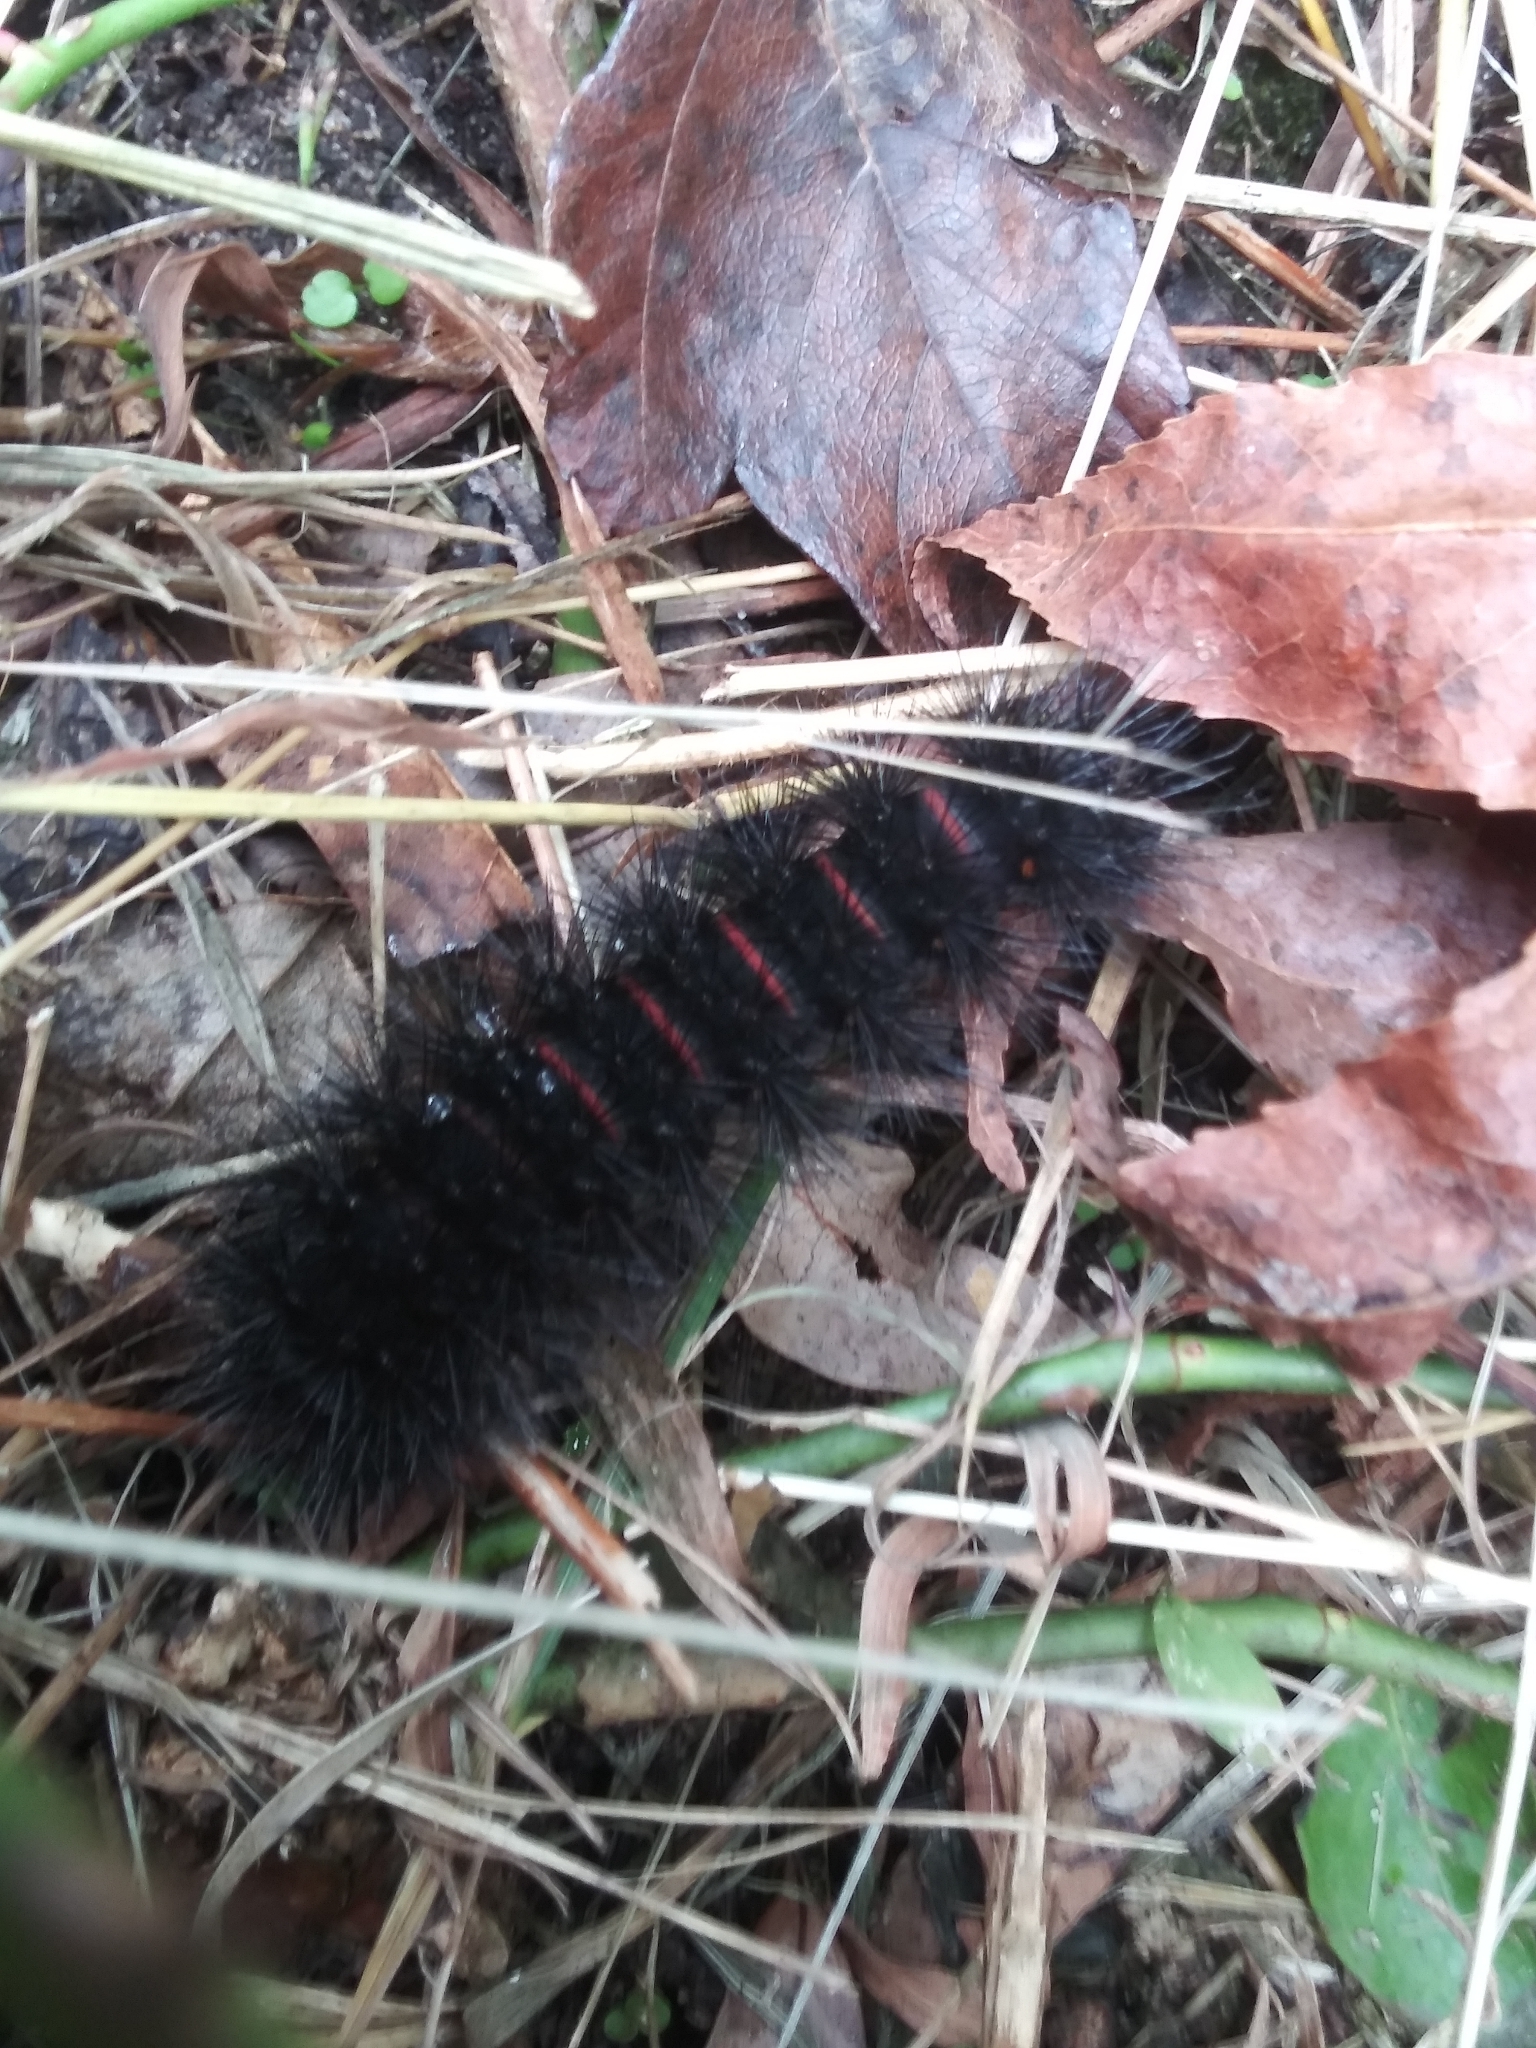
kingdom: Animalia
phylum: Arthropoda
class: Insecta
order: Lepidoptera
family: Erebidae
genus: Hypercompe
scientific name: Hypercompe scribonia
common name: Giant leopard moth
